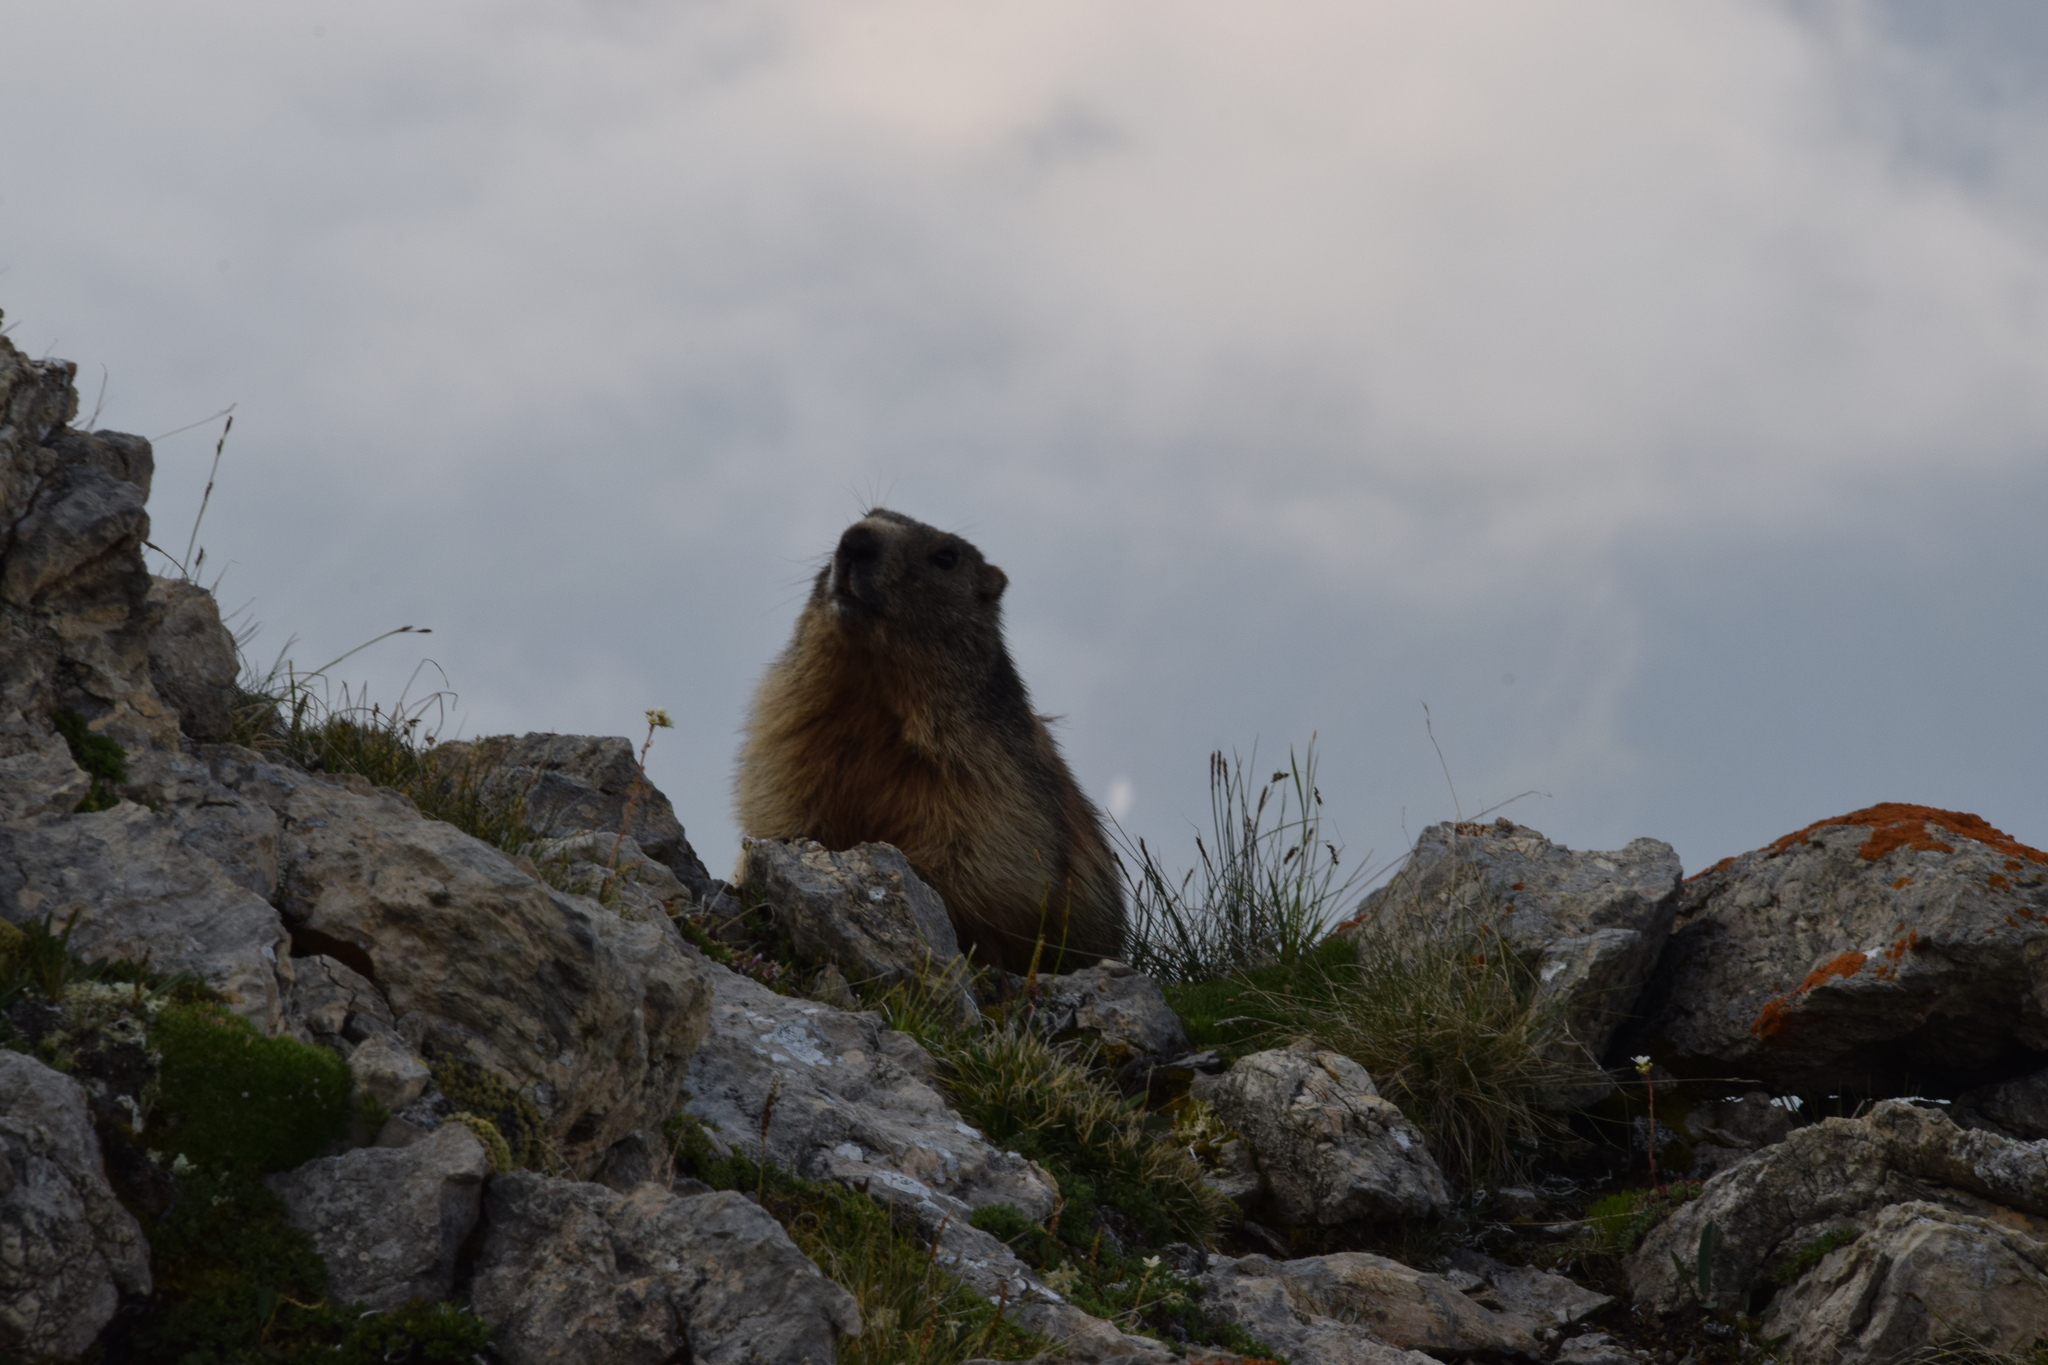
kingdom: Animalia
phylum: Chordata
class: Mammalia
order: Rodentia
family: Sciuridae
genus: Marmota
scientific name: Marmota marmota
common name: Alpine marmot
